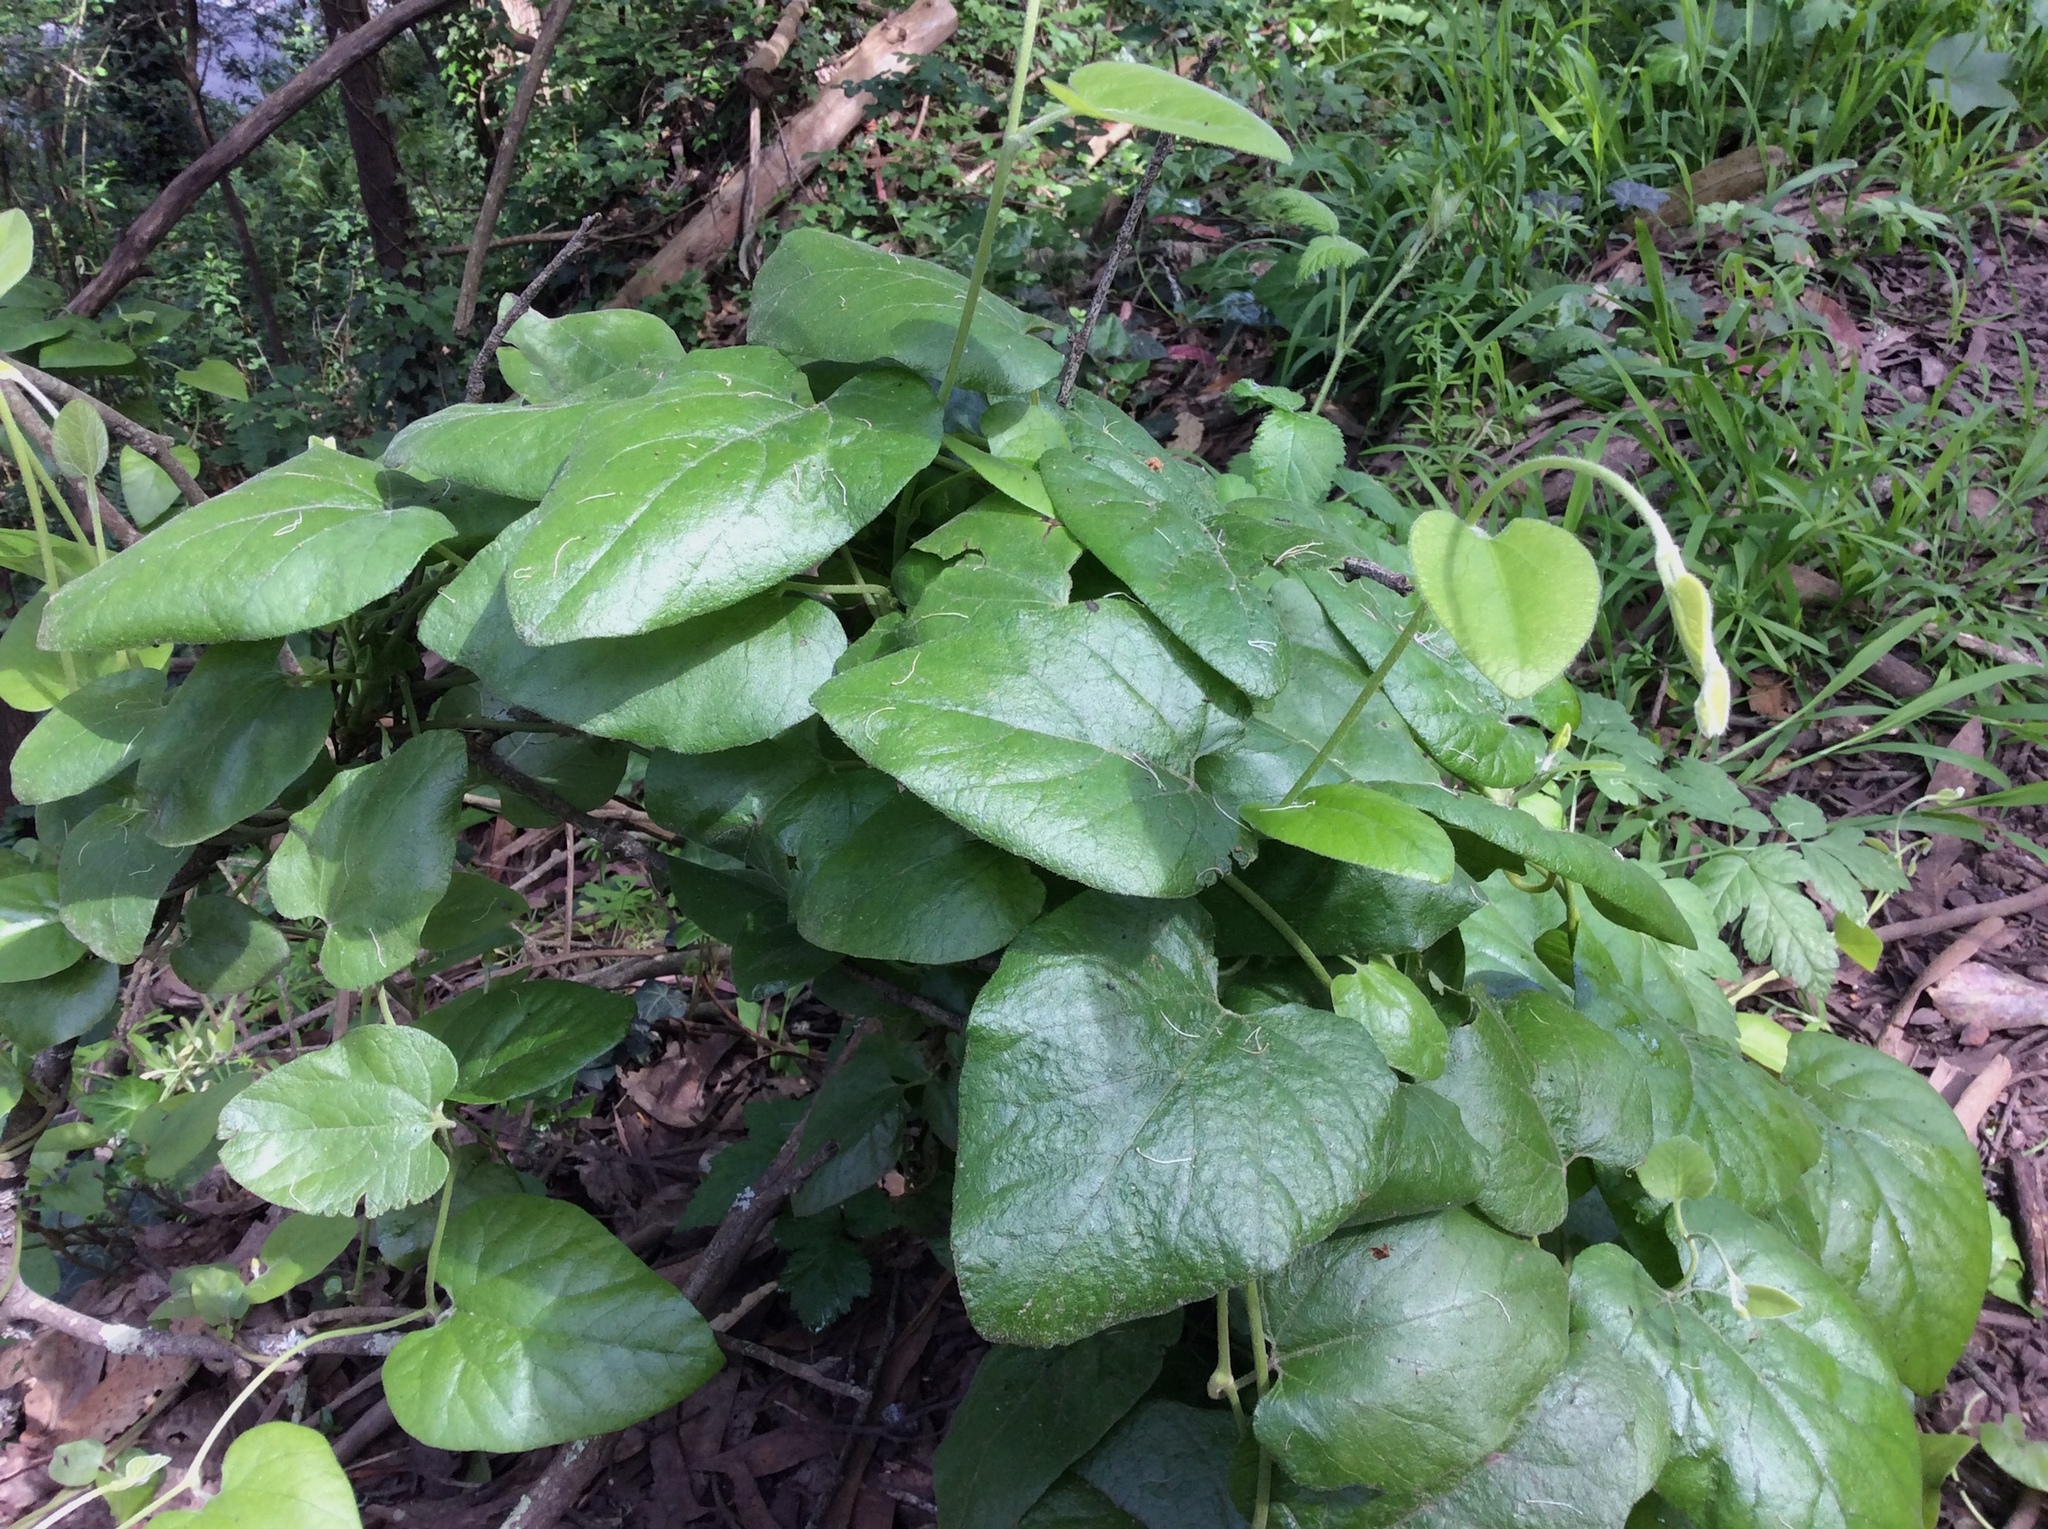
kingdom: Plantae
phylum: Tracheophyta
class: Magnoliopsida
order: Piperales
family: Aristolochiaceae
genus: Isotrema
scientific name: Isotrema californicum
